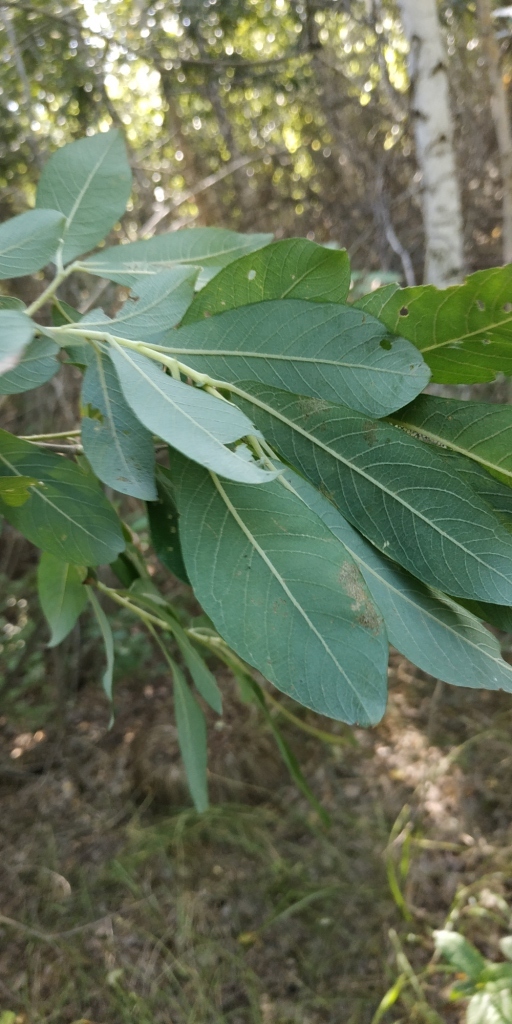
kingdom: Plantae
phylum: Tracheophyta
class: Magnoliopsida
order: Malpighiales
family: Salicaceae
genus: Salix
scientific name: Salix cinerea
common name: Common sallow
